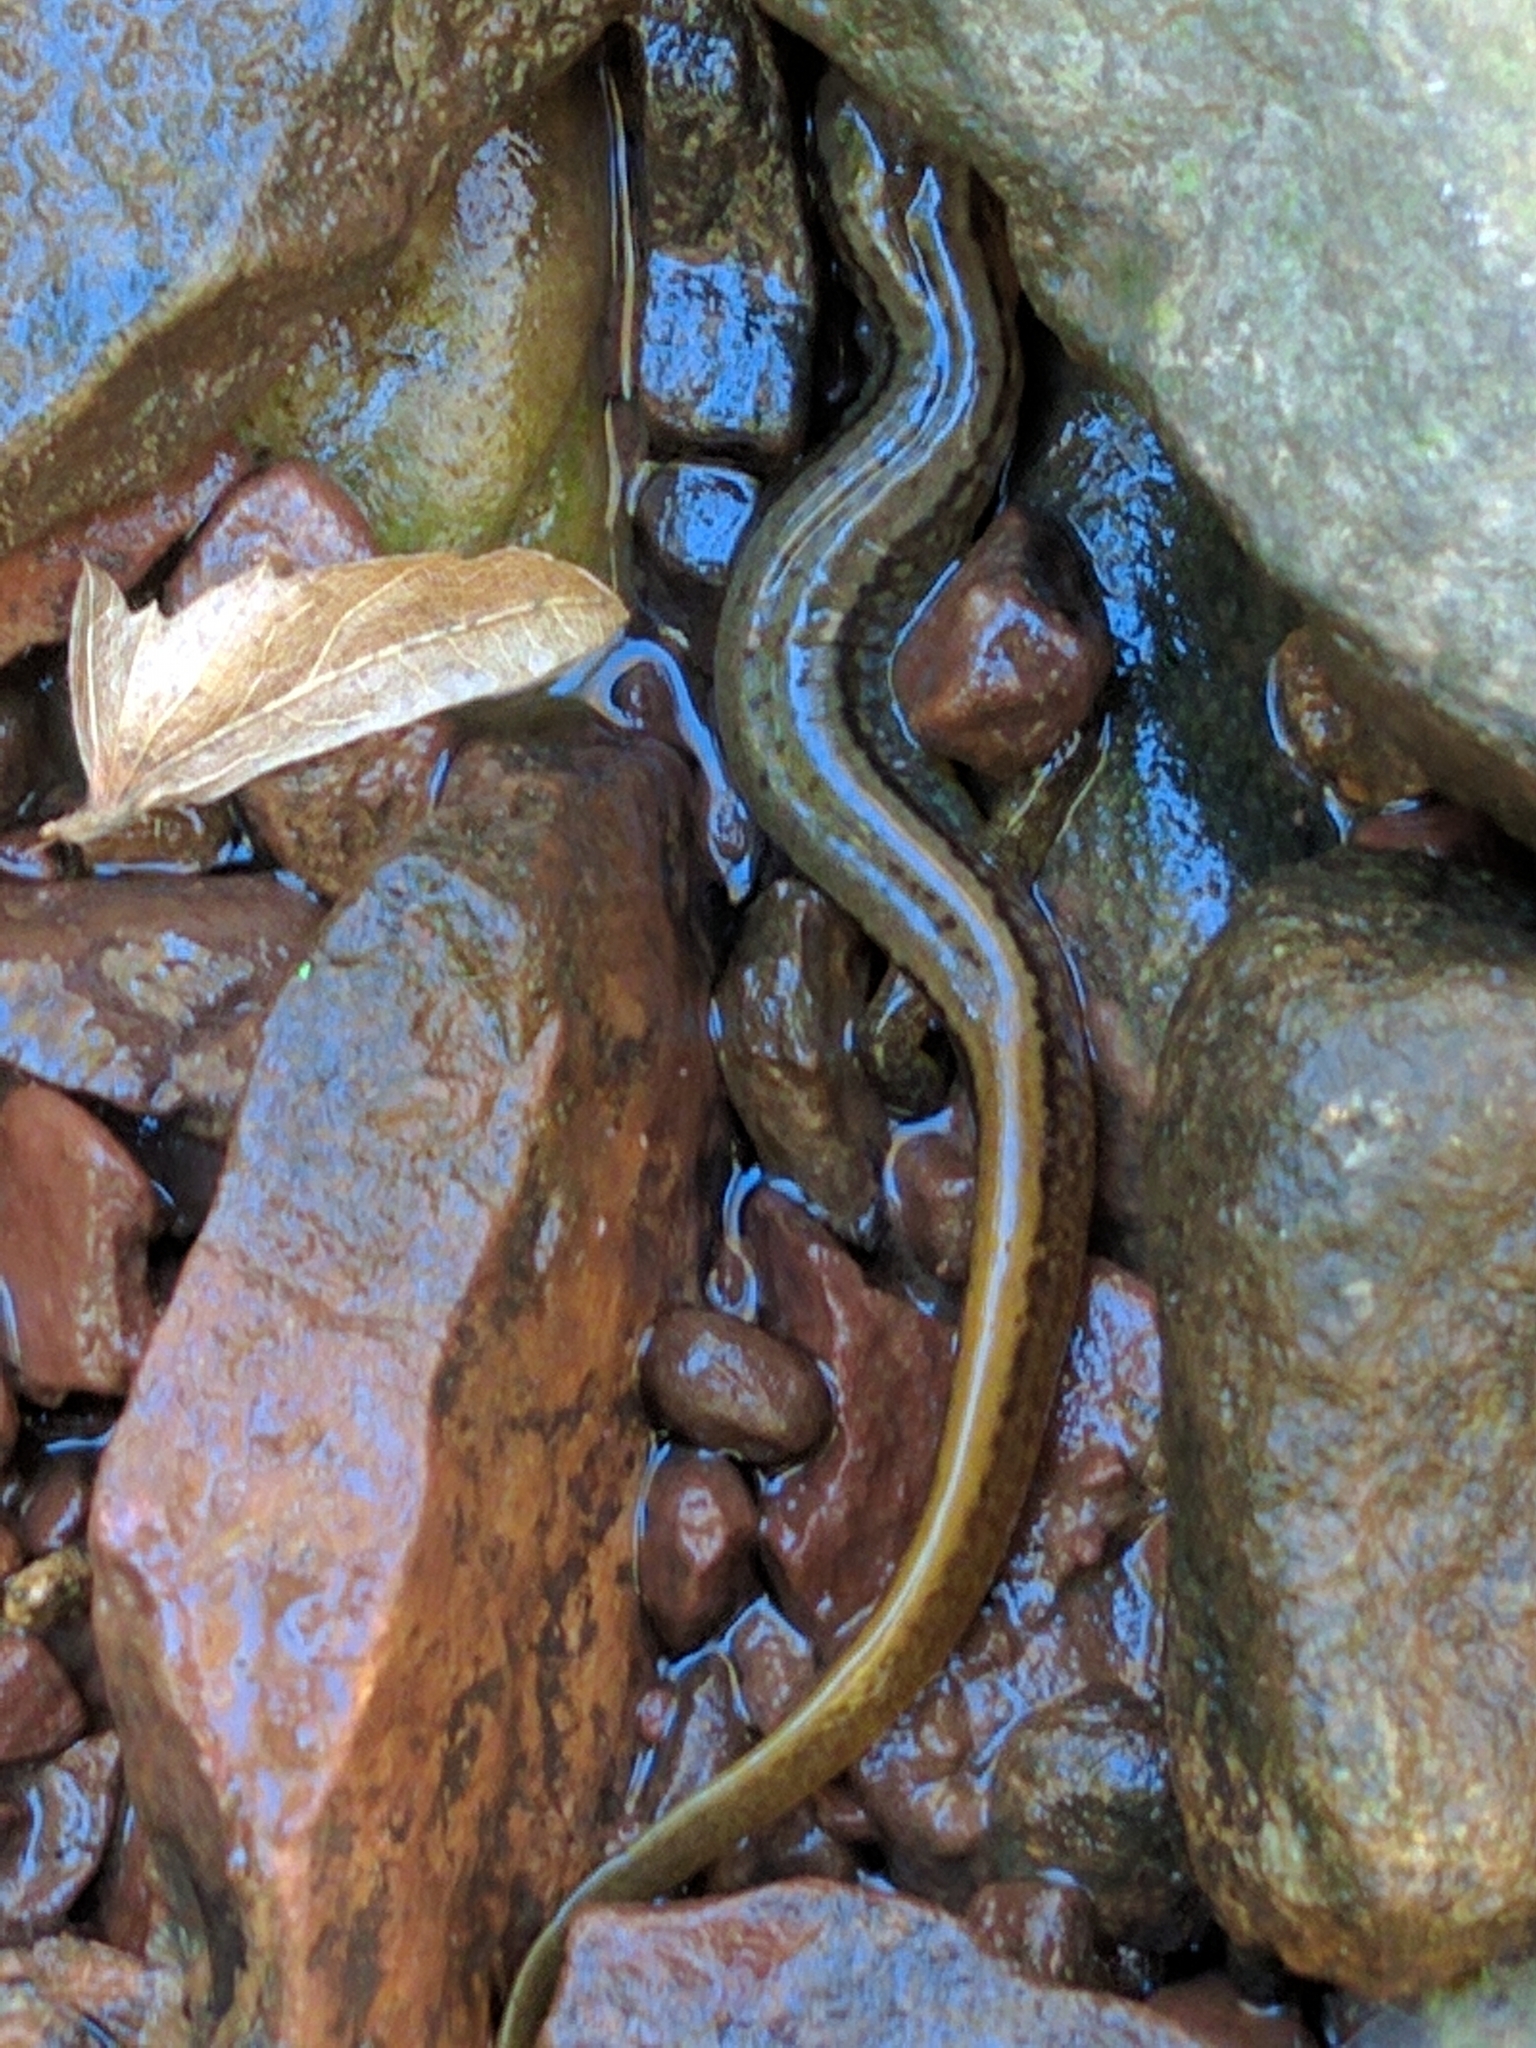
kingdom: Animalia
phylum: Chordata
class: Amphibia
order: Caudata
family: Plethodontidae
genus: Eurycea
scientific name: Eurycea bislineata
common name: Northern two-lined salamander
